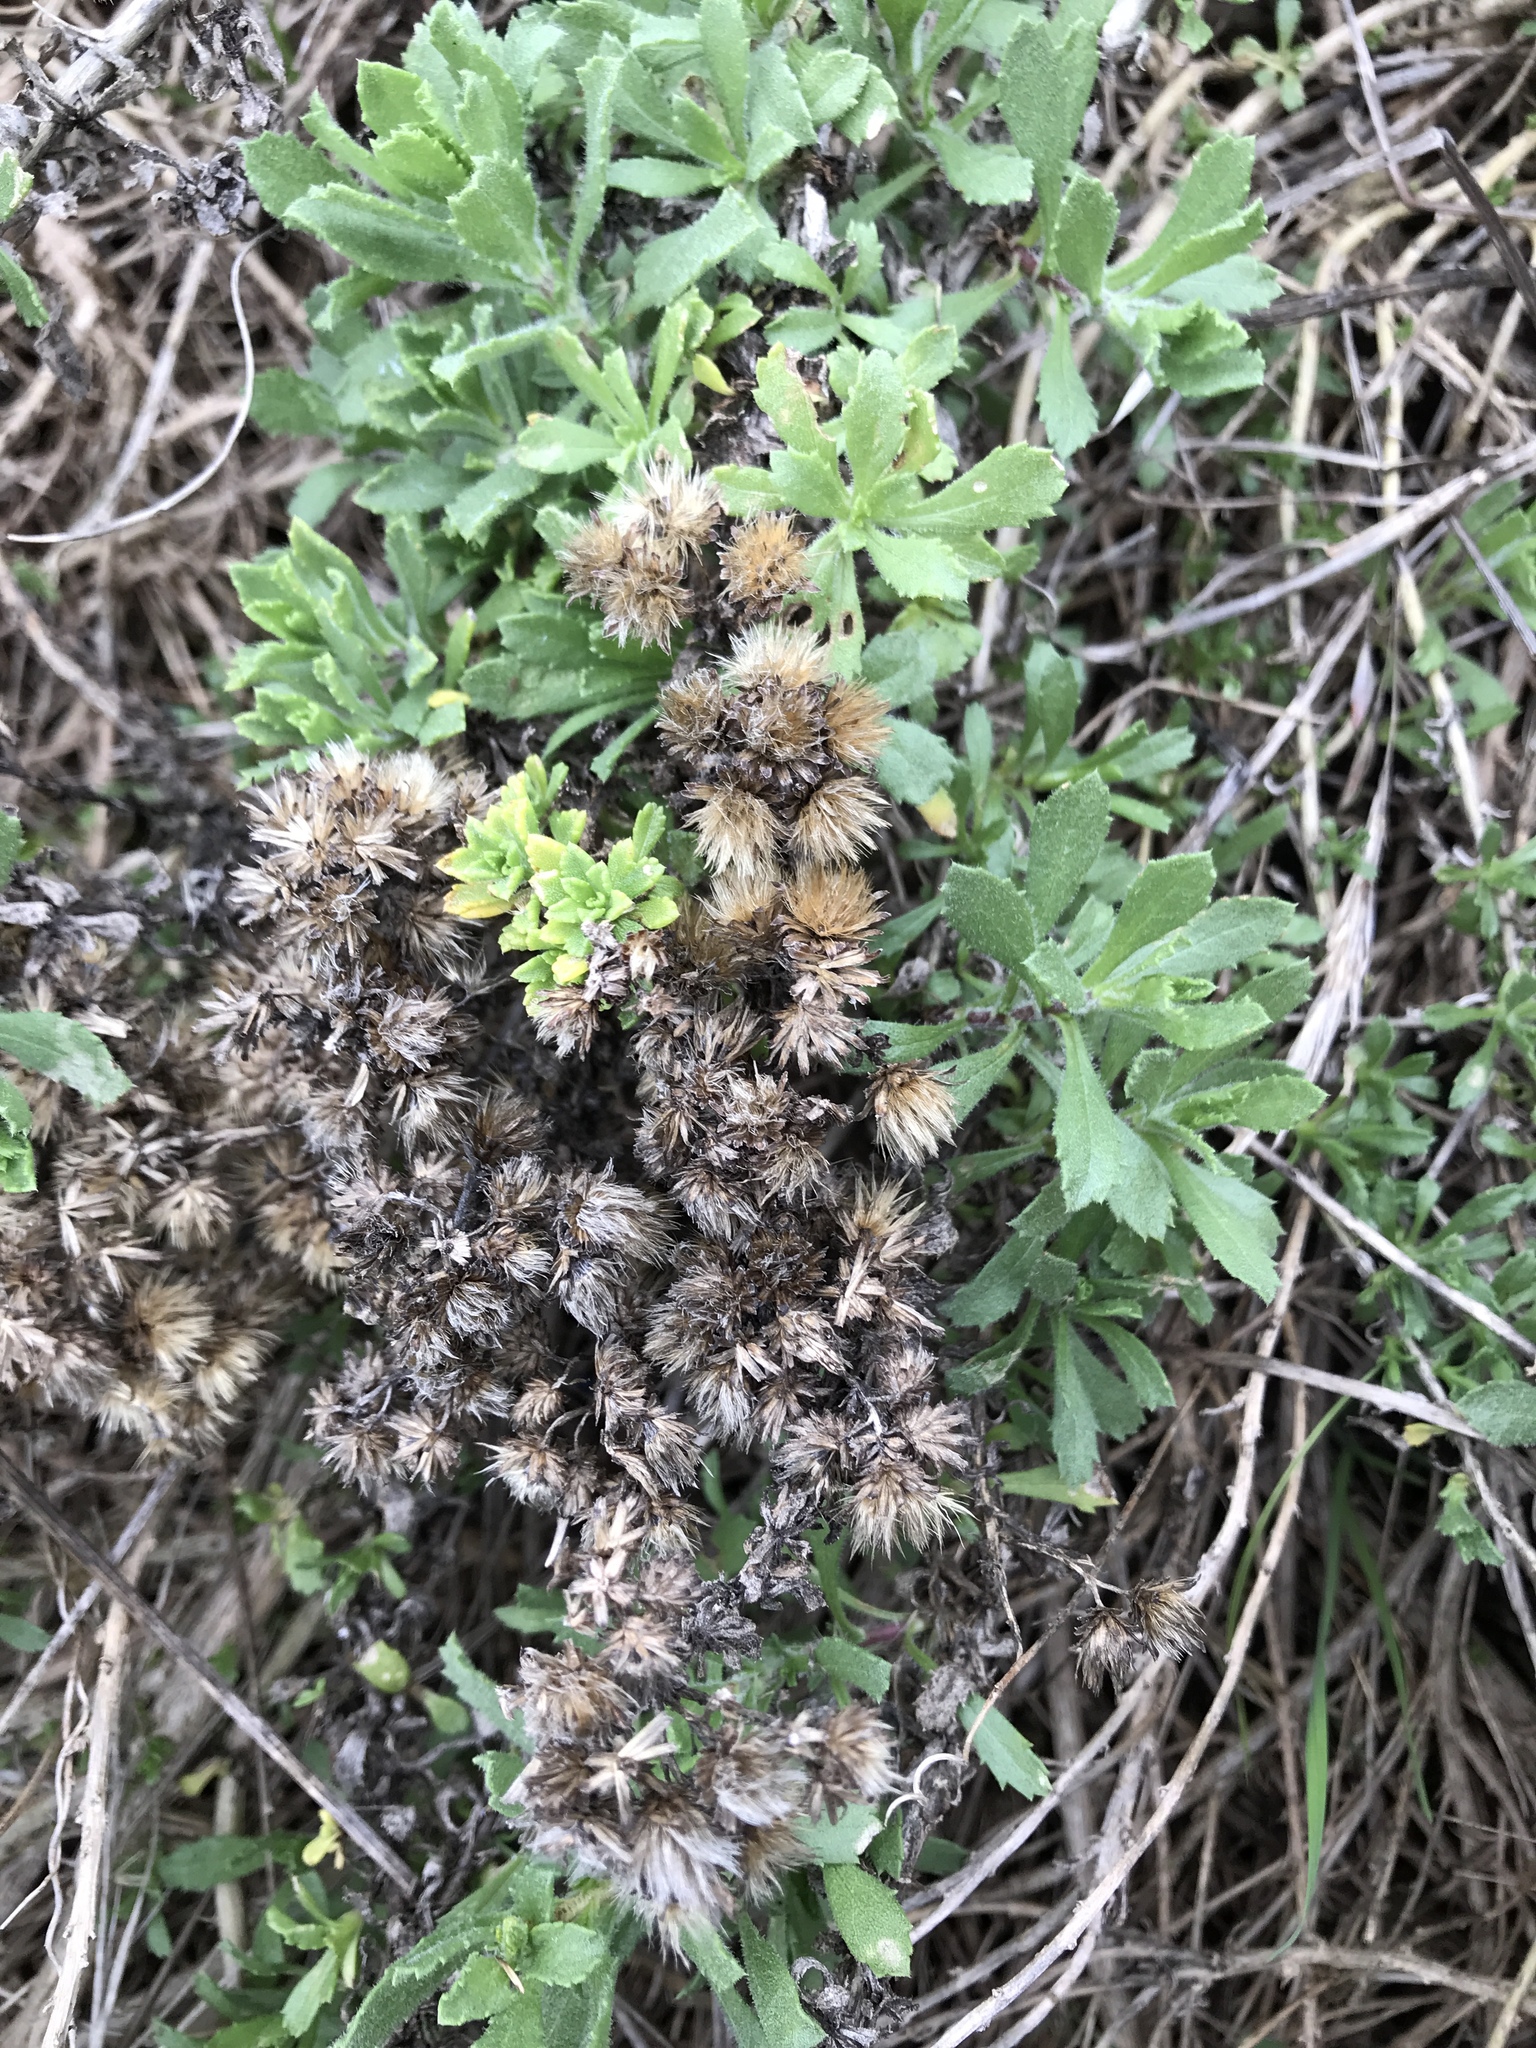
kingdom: Plantae
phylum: Tracheophyta
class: Magnoliopsida
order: Asterales
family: Asteraceae
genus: Isocoma
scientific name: Isocoma menziesii
